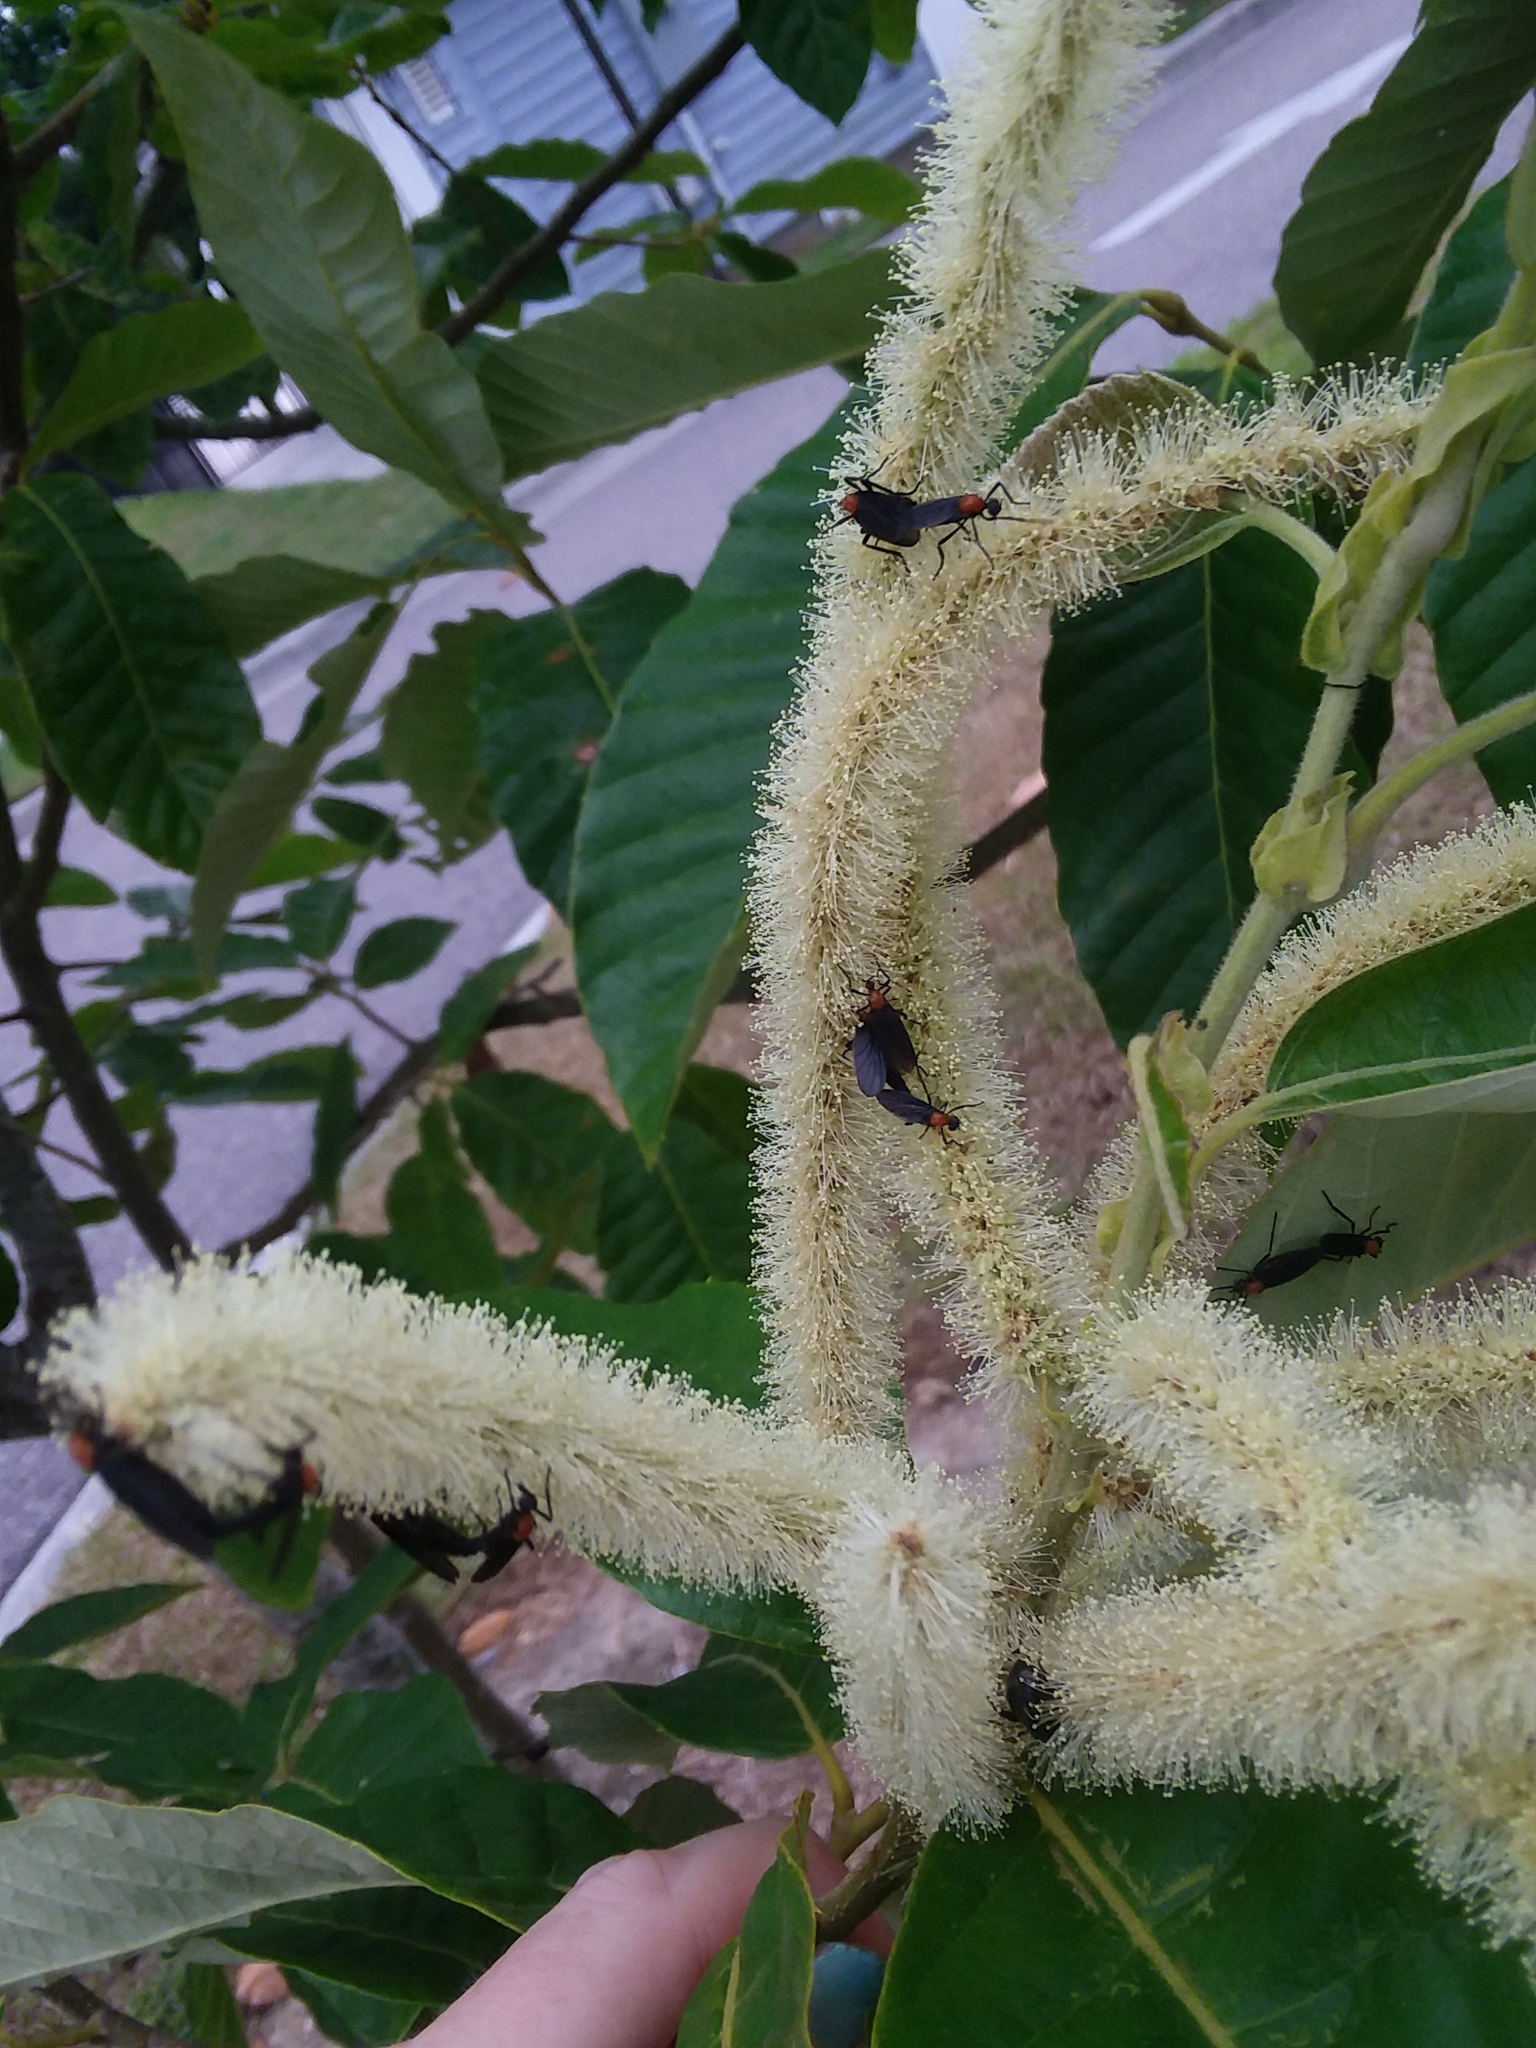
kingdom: Animalia
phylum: Arthropoda
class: Insecta
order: Diptera
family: Bibionidae
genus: Plecia
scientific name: Plecia nearctica
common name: March fly
